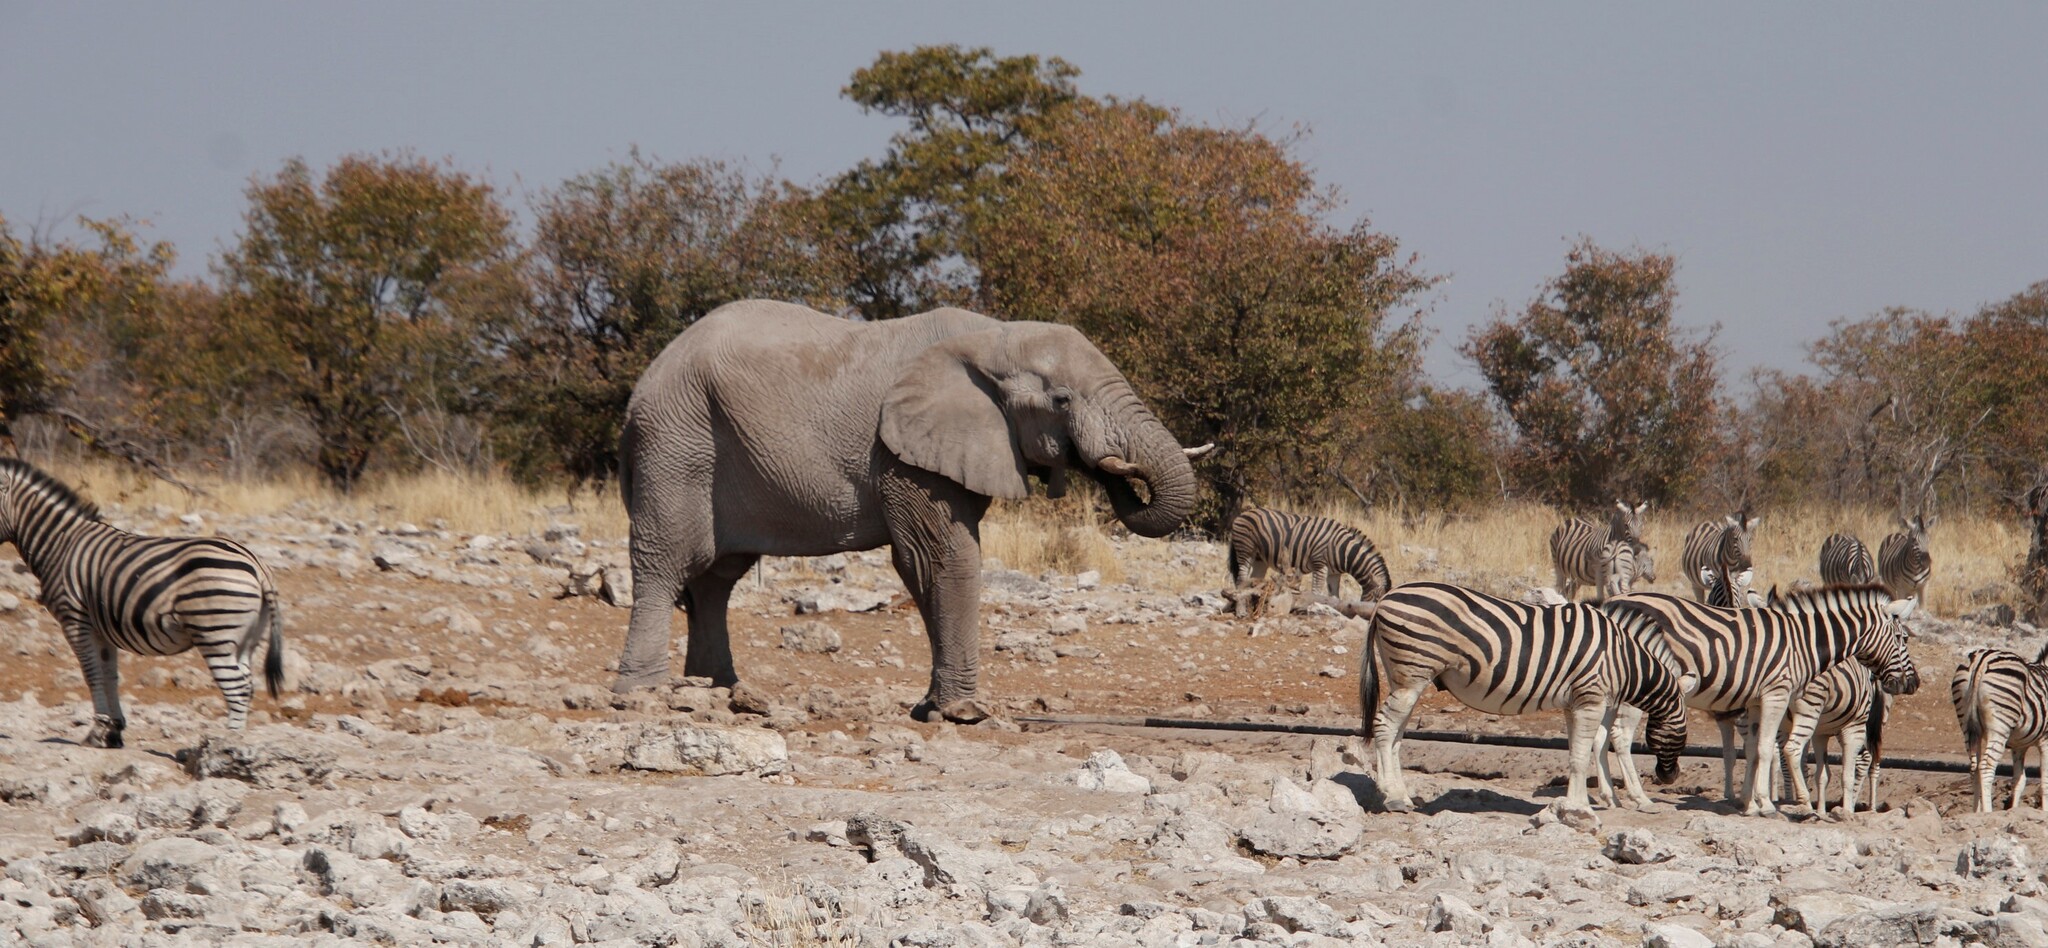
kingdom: Animalia
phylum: Chordata
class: Mammalia
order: Perissodactyla
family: Equidae
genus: Equus
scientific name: Equus quagga
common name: Plains zebra
